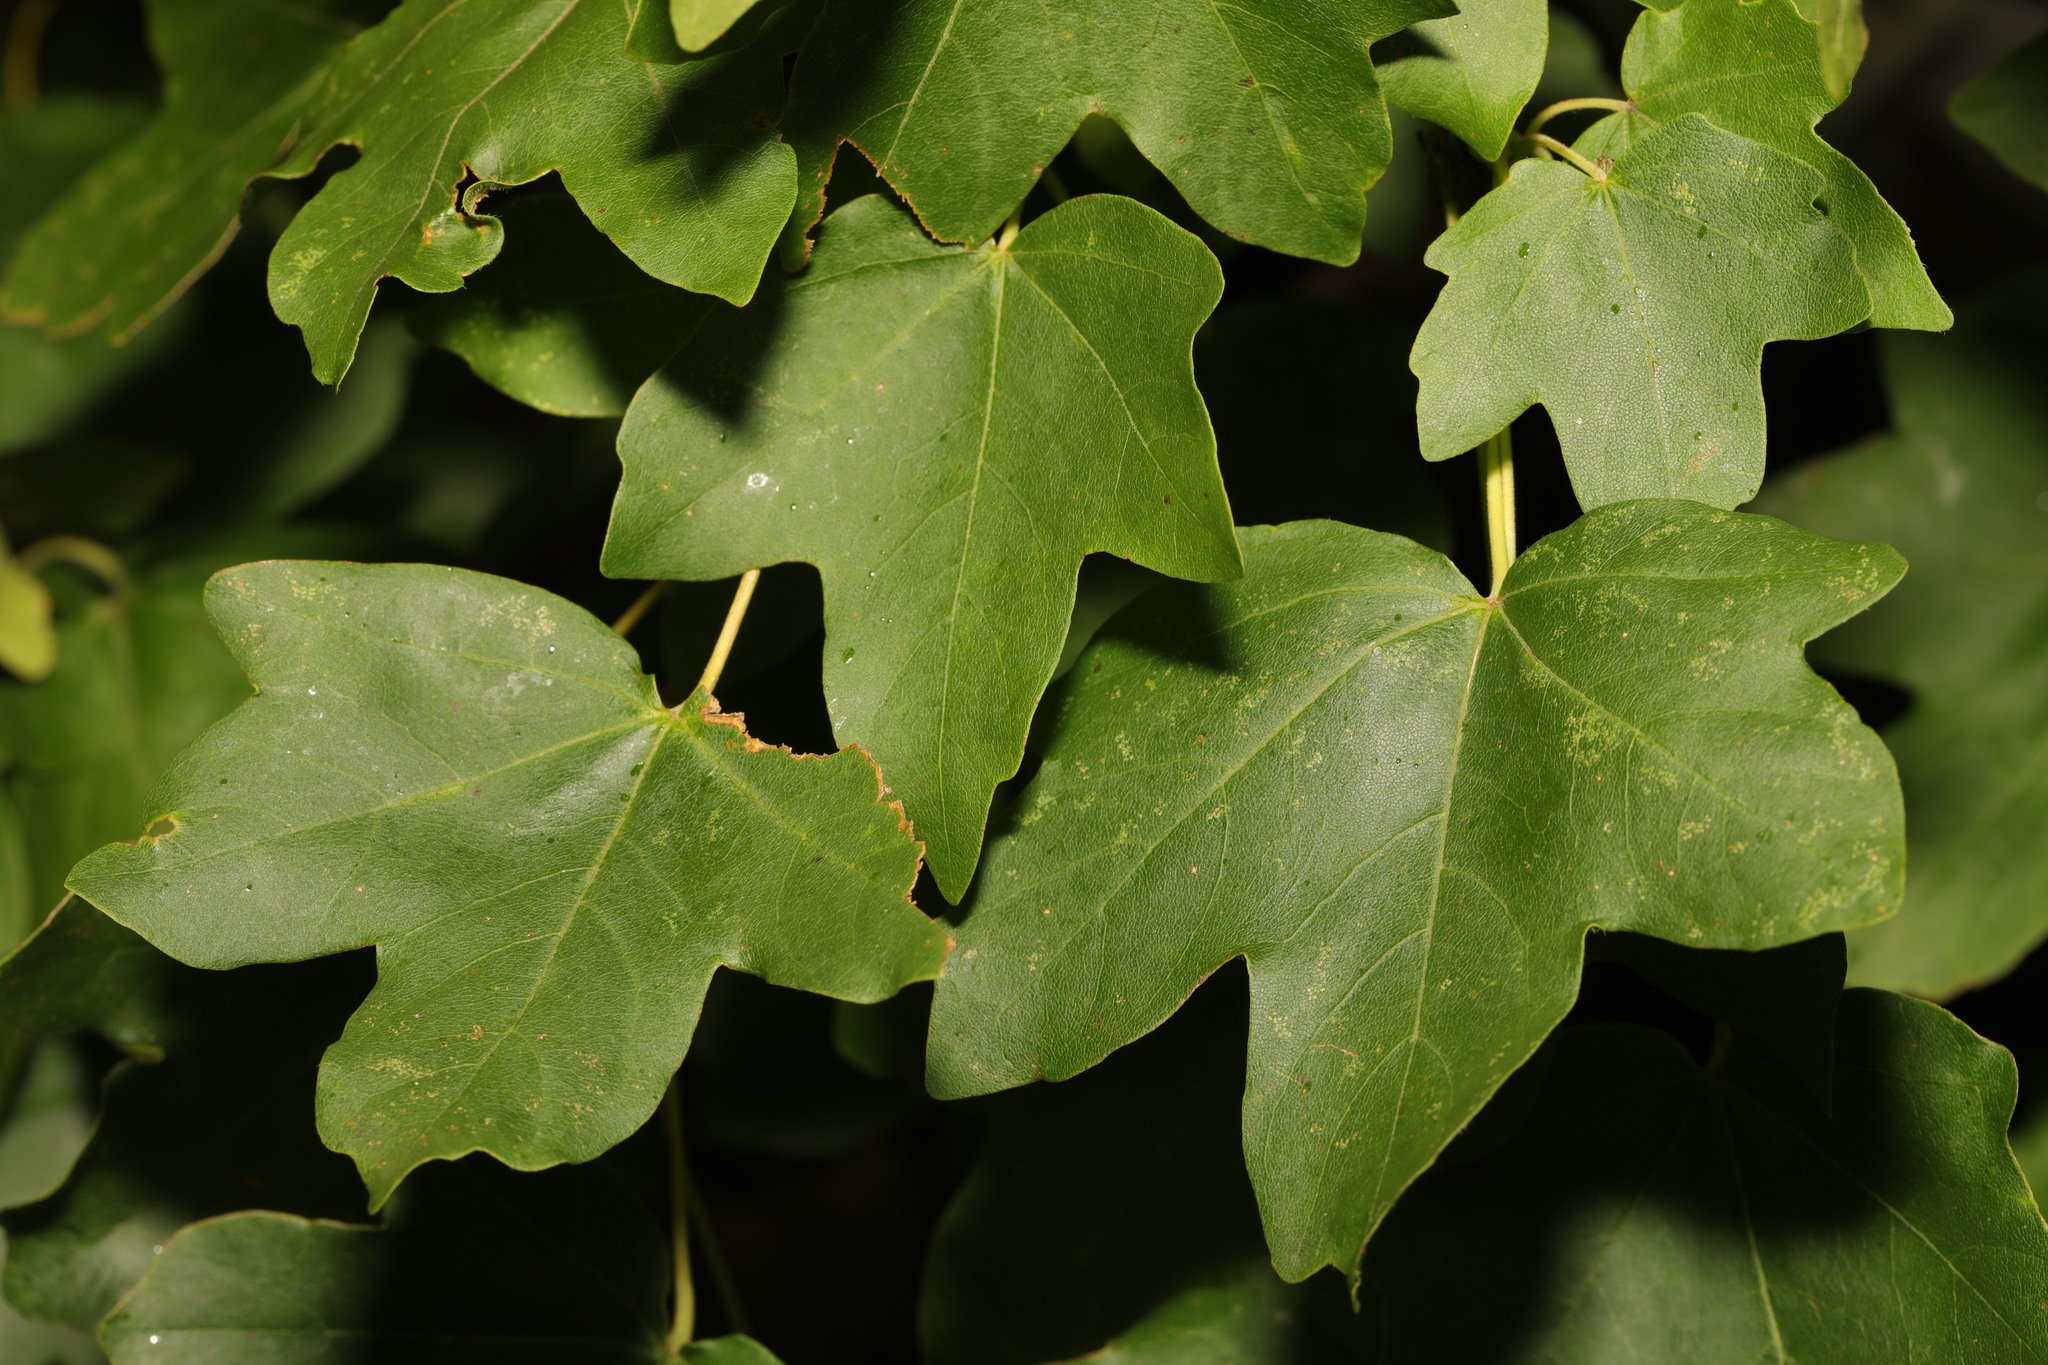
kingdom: Plantae
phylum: Tracheophyta
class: Magnoliopsida
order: Sapindales
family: Sapindaceae
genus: Acer
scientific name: Acer campestre
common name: Field maple
